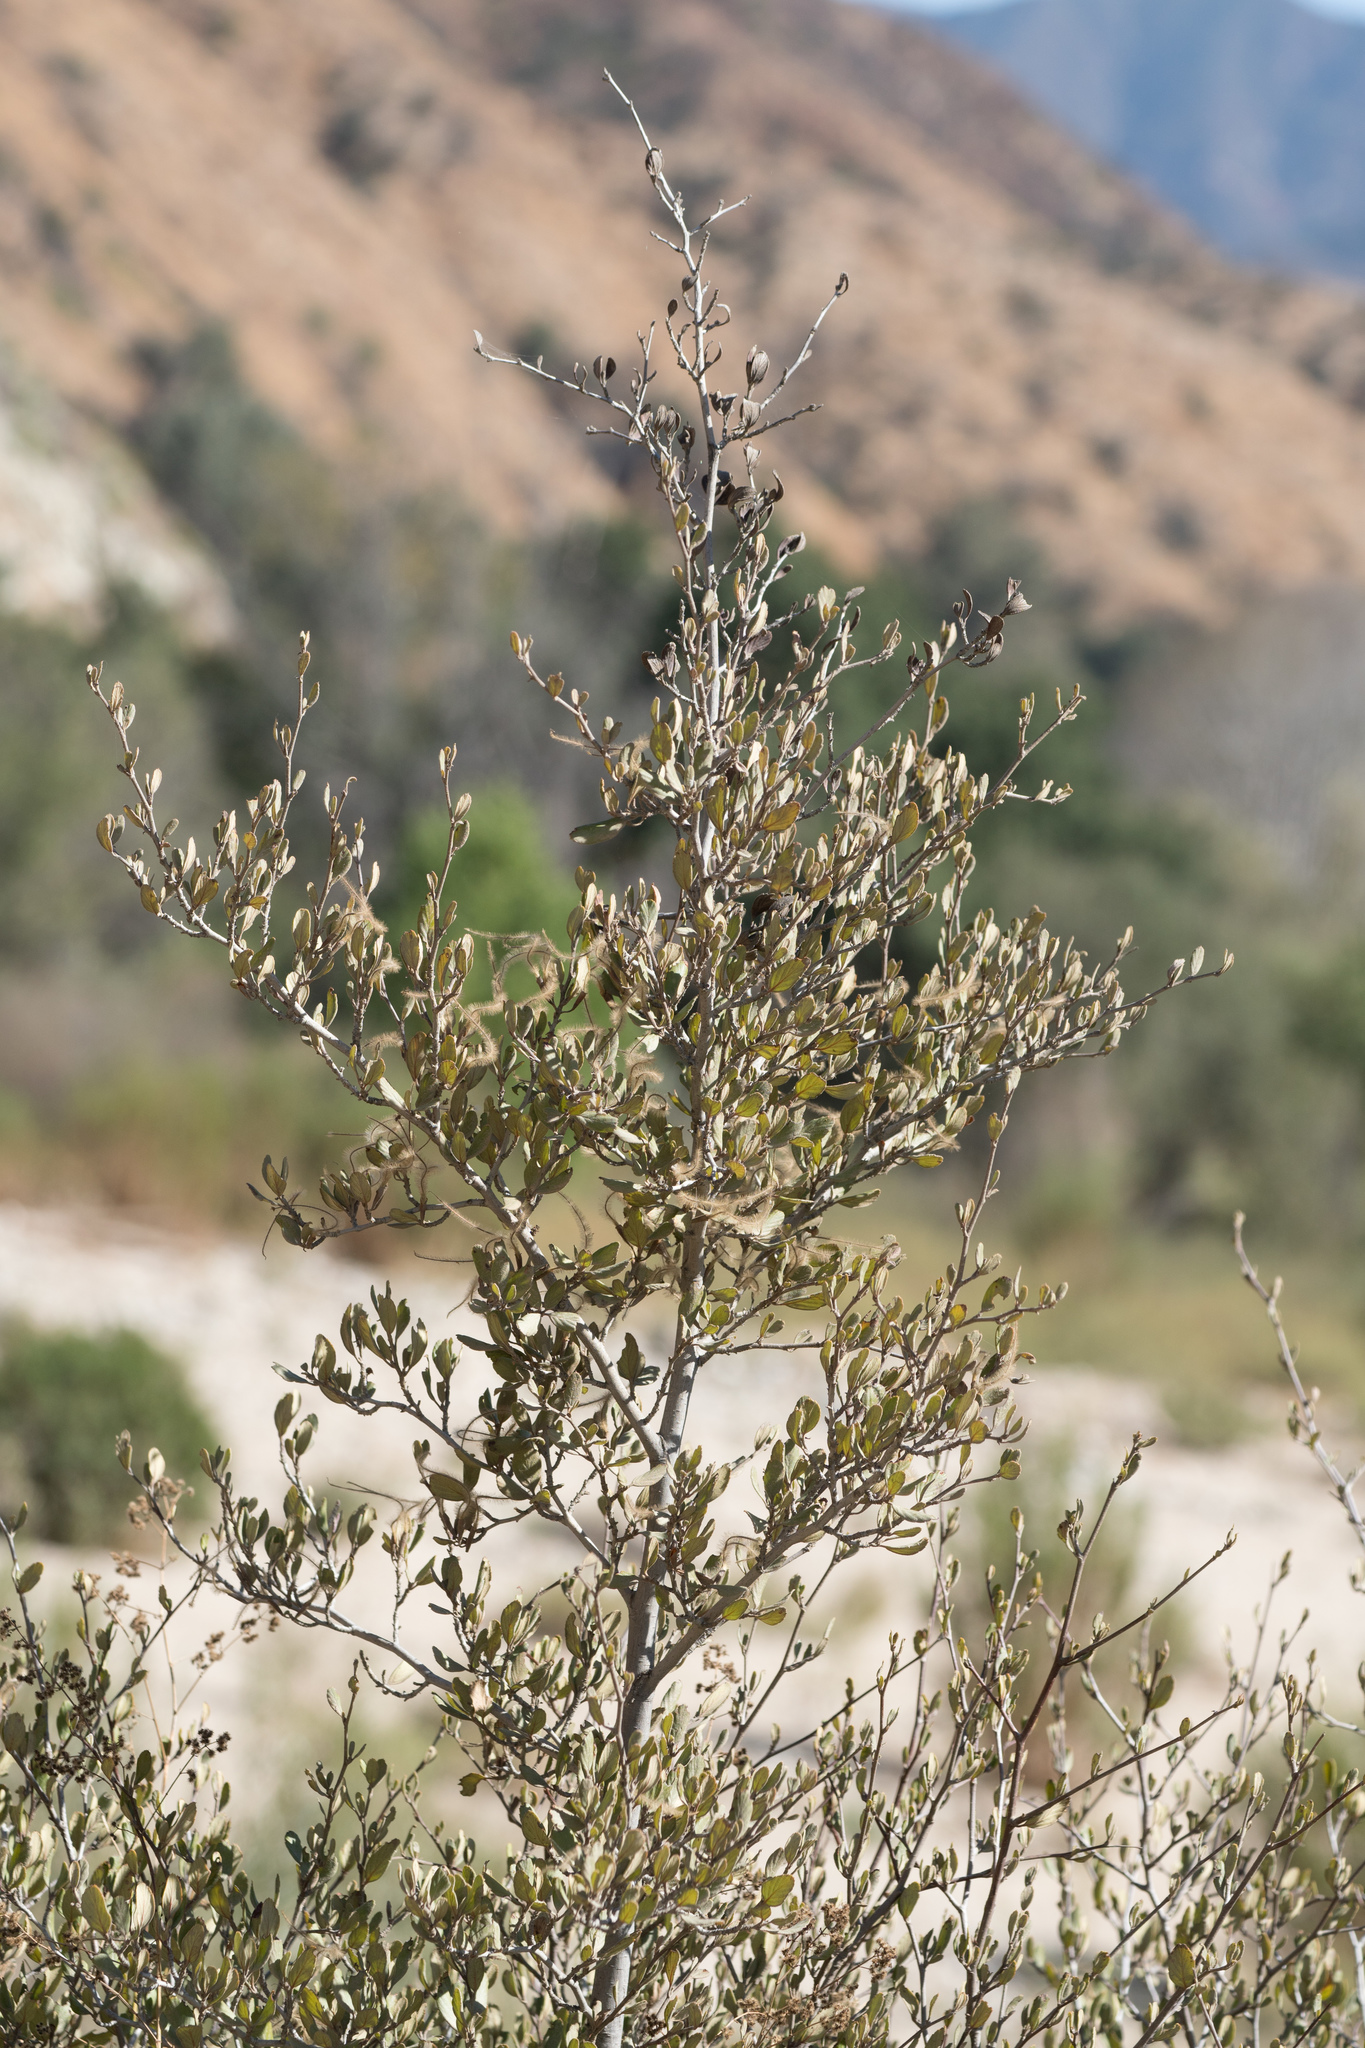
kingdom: Plantae
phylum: Tracheophyta
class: Magnoliopsida
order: Rosales
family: Rosaceae
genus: Cercocarpus
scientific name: Cercocarpus betuloides
